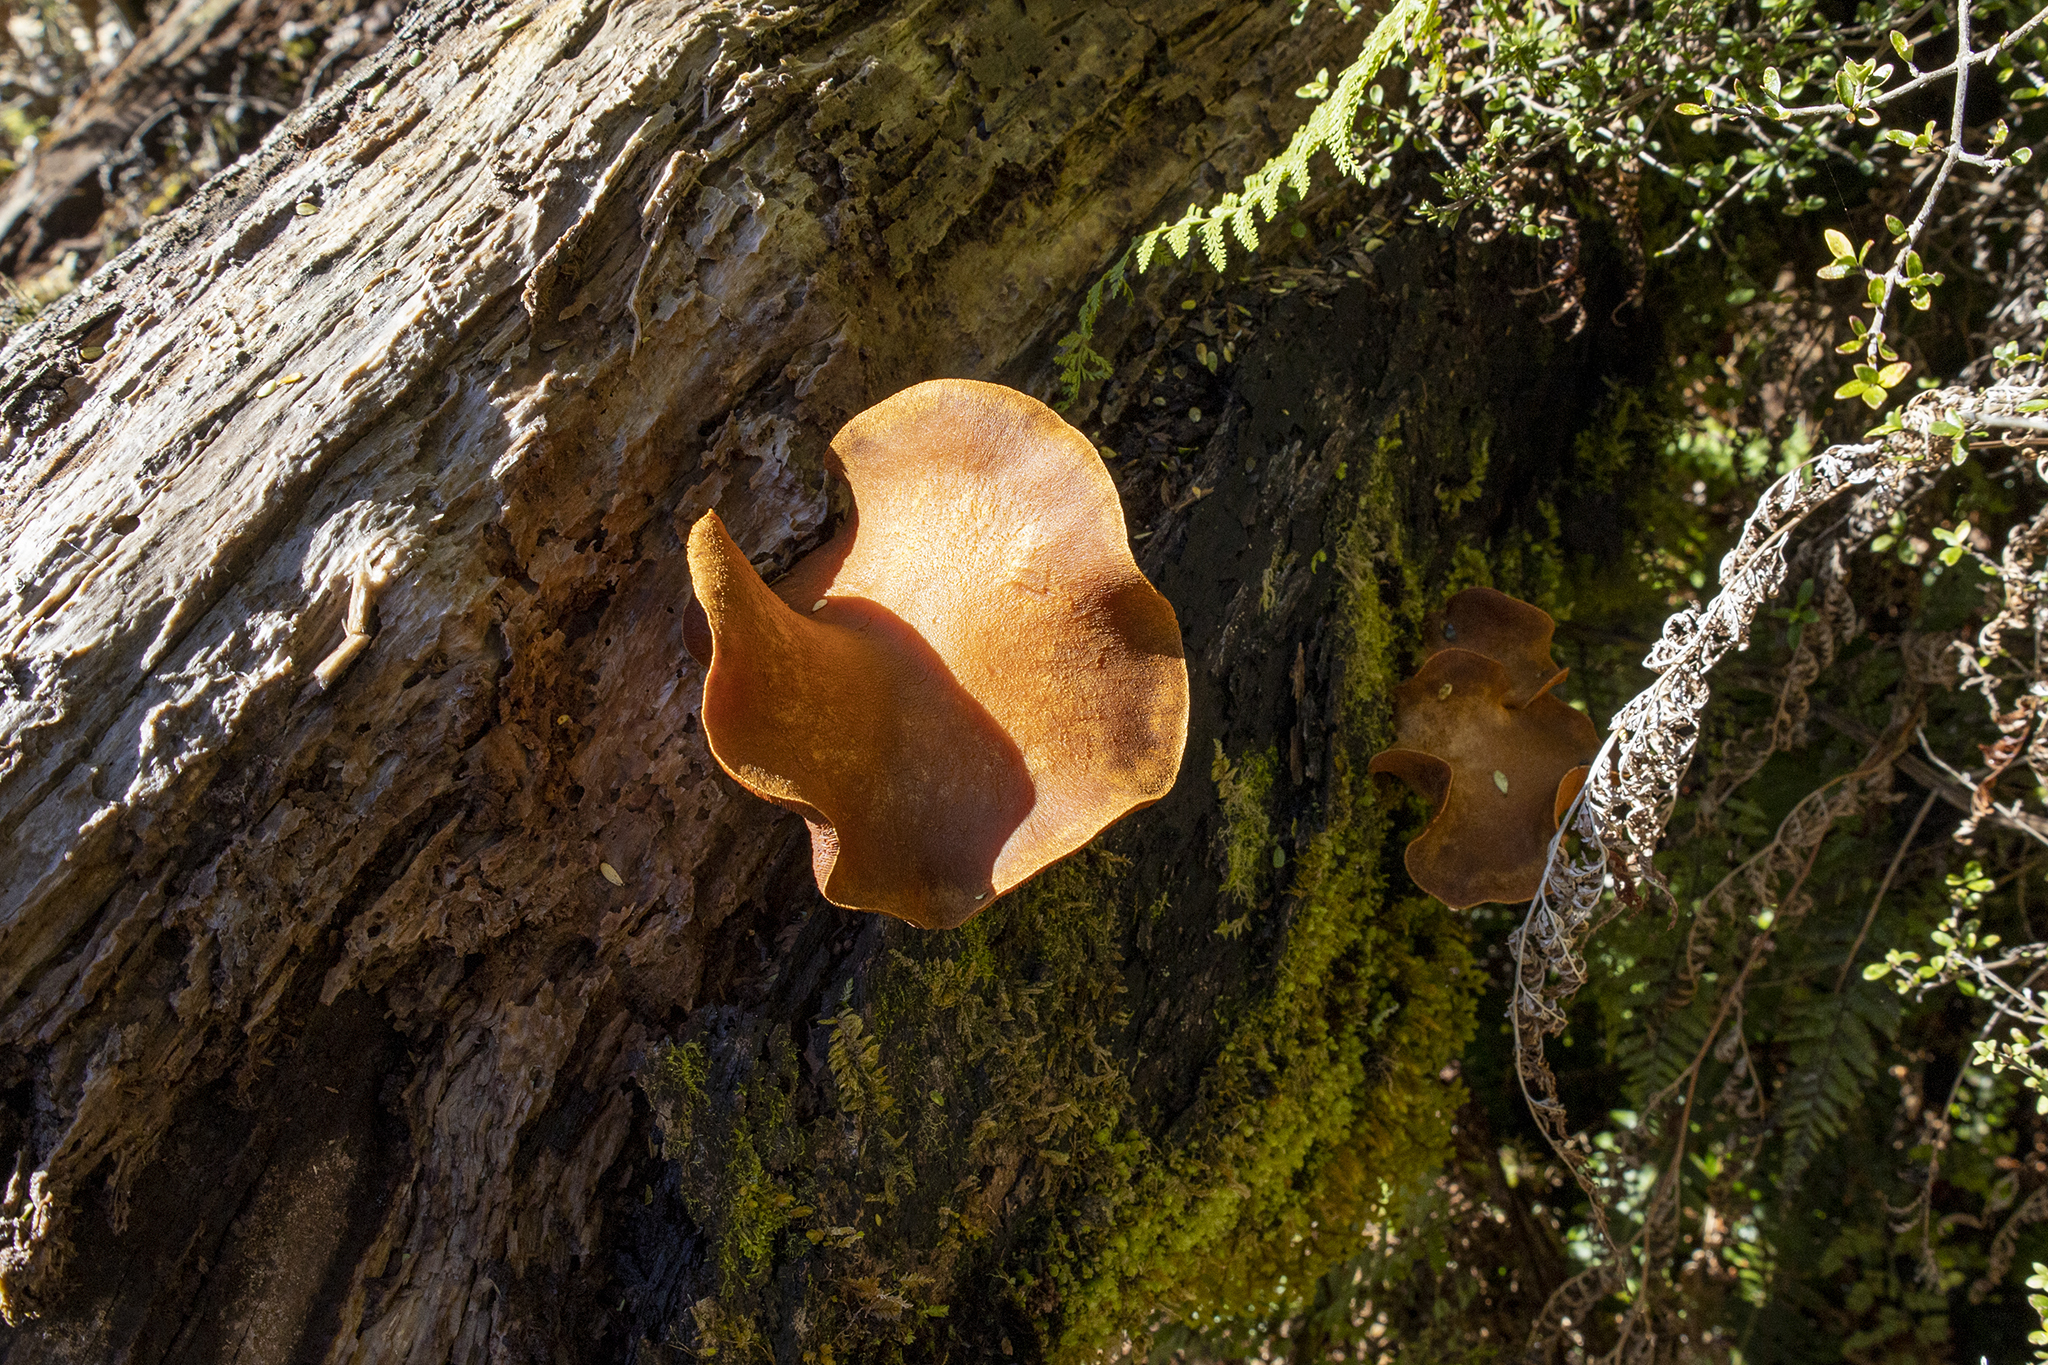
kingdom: Fungi
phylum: Basidiomycota
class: Agaricomycetes
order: Agaricales
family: Hymenogastraceae
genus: Gymnopilus
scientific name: Gymnopilus junonius
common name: Spectacular rustgill
